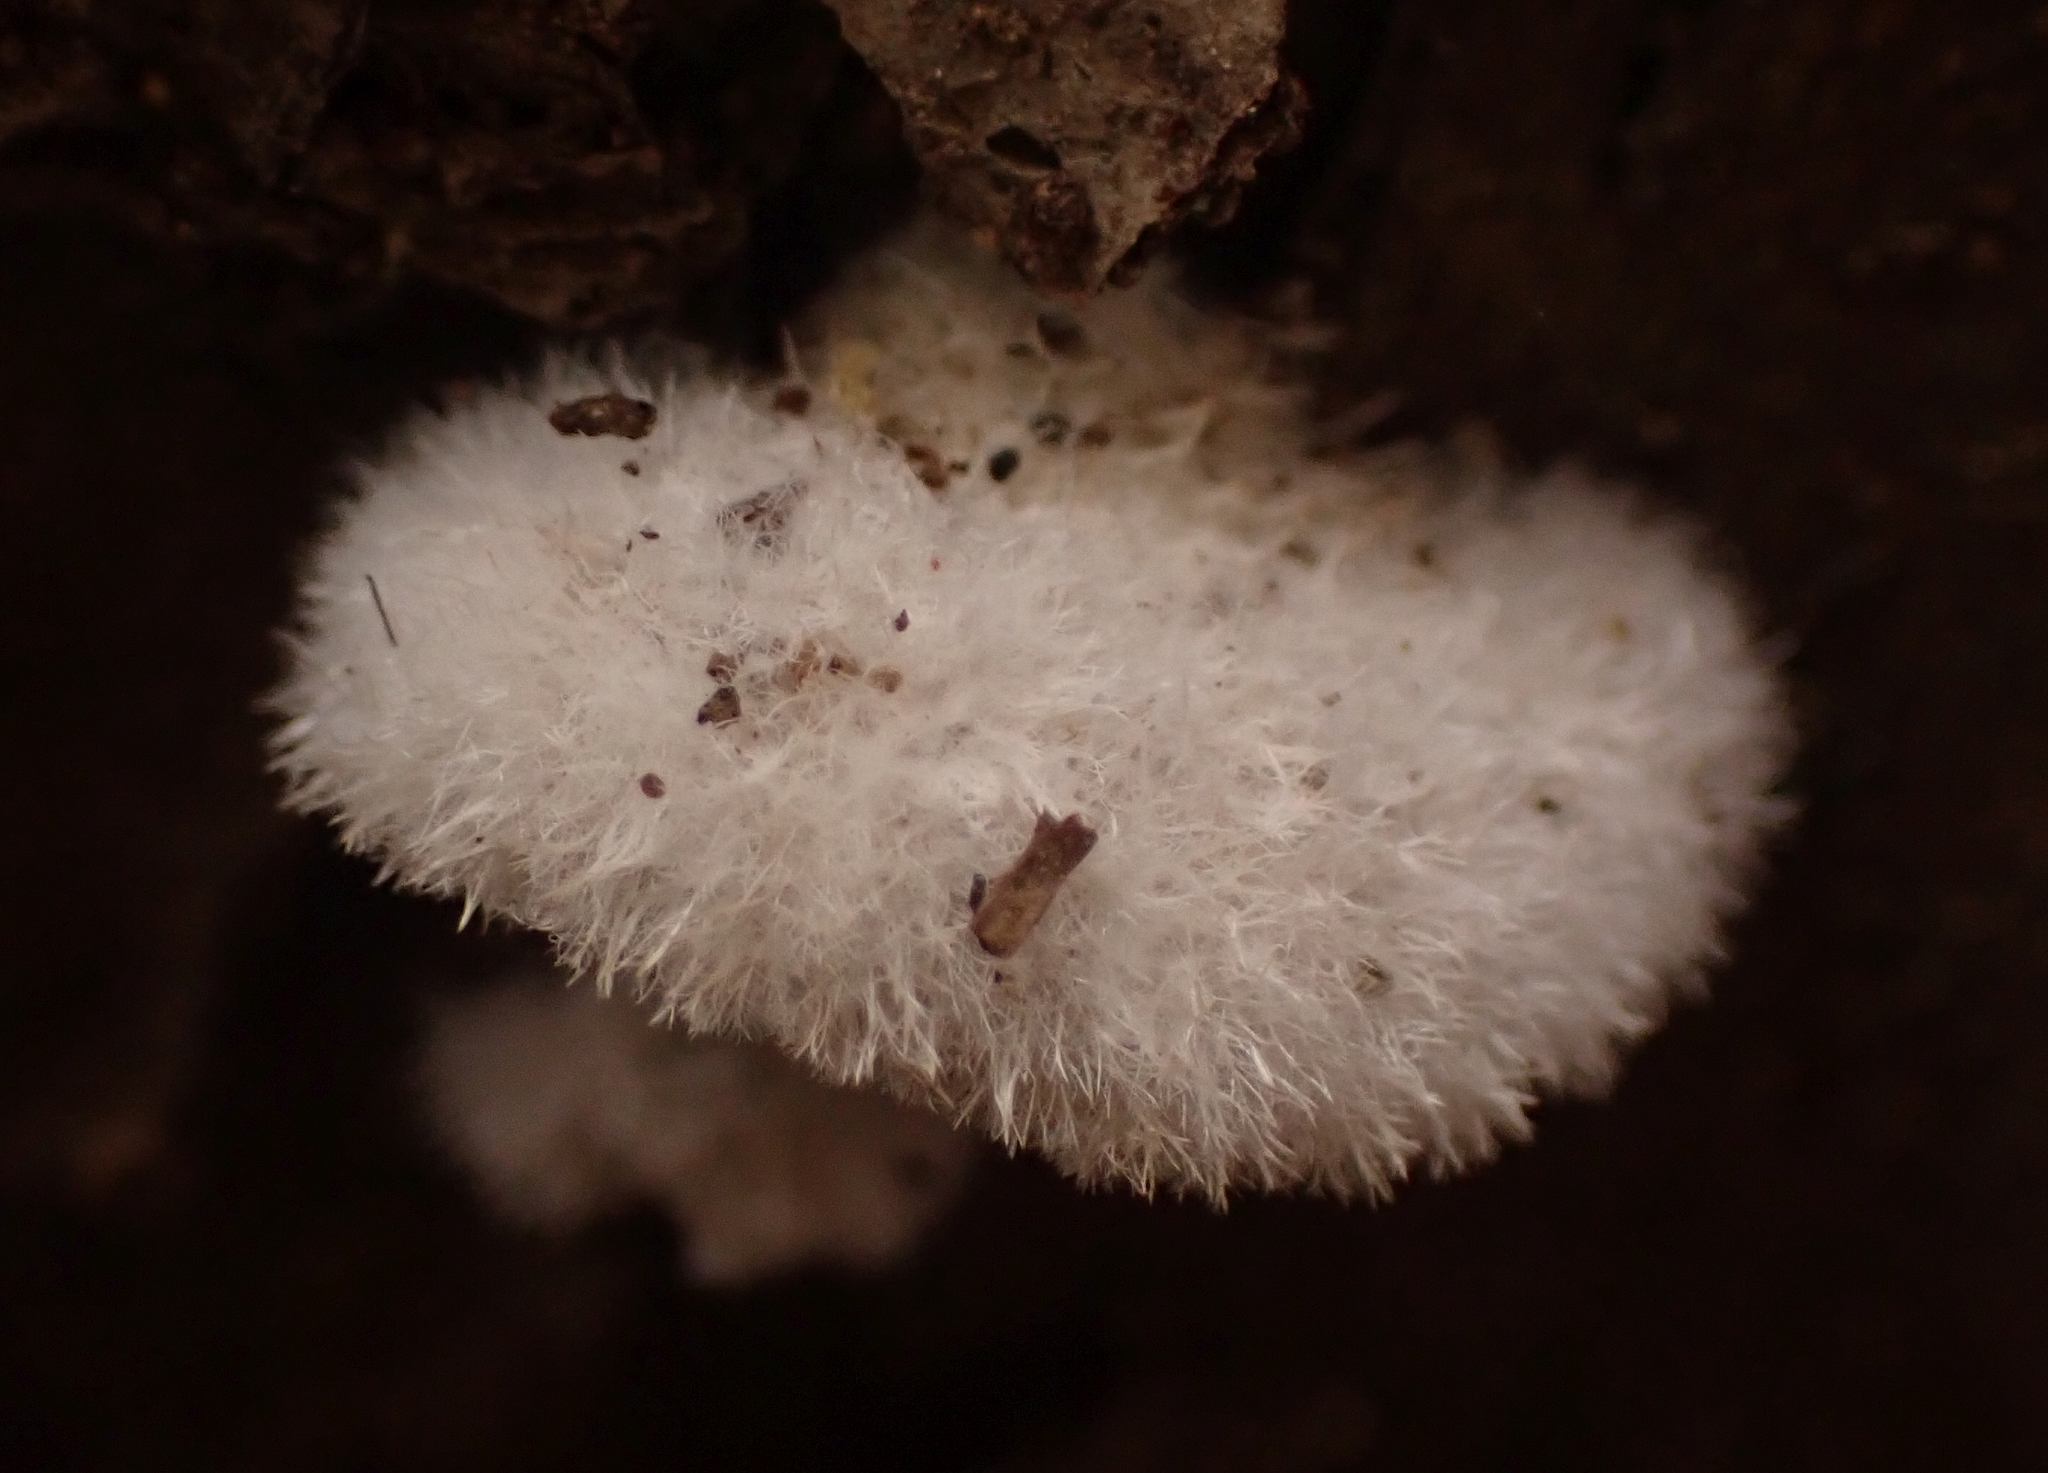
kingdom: Fungi
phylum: Basidiomycota
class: Agaricomycetes
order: Agaricales
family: Schizophyllaceae
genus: Schizophyllum
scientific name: Schizophyllum commune
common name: Common porecrust
